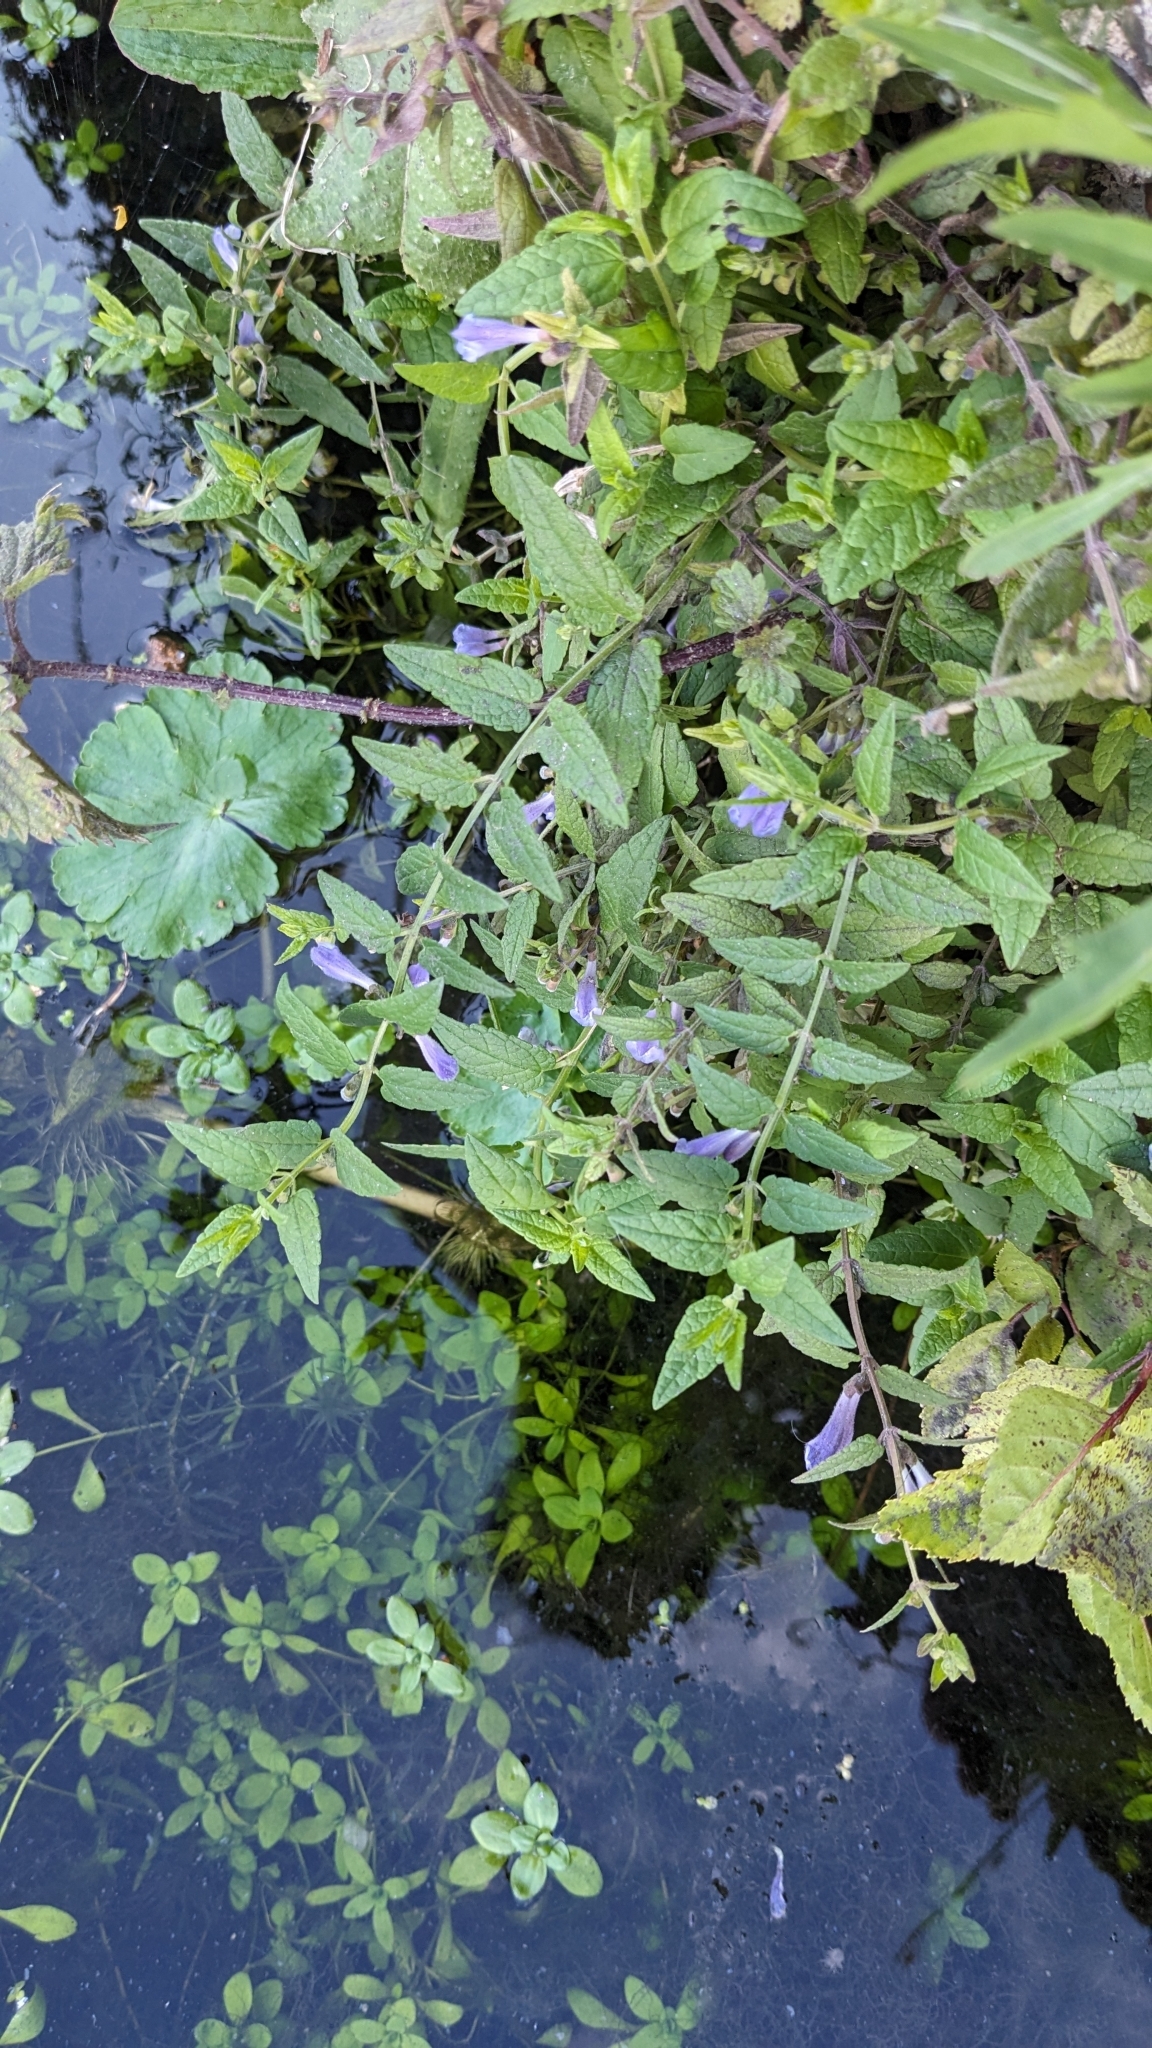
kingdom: Plantae
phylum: Tracheophyta
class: Magnoliopsida
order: Lamiales
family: Lamiaceae
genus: Scutellaria
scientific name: Scutellaria galericulata
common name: Skullcap
